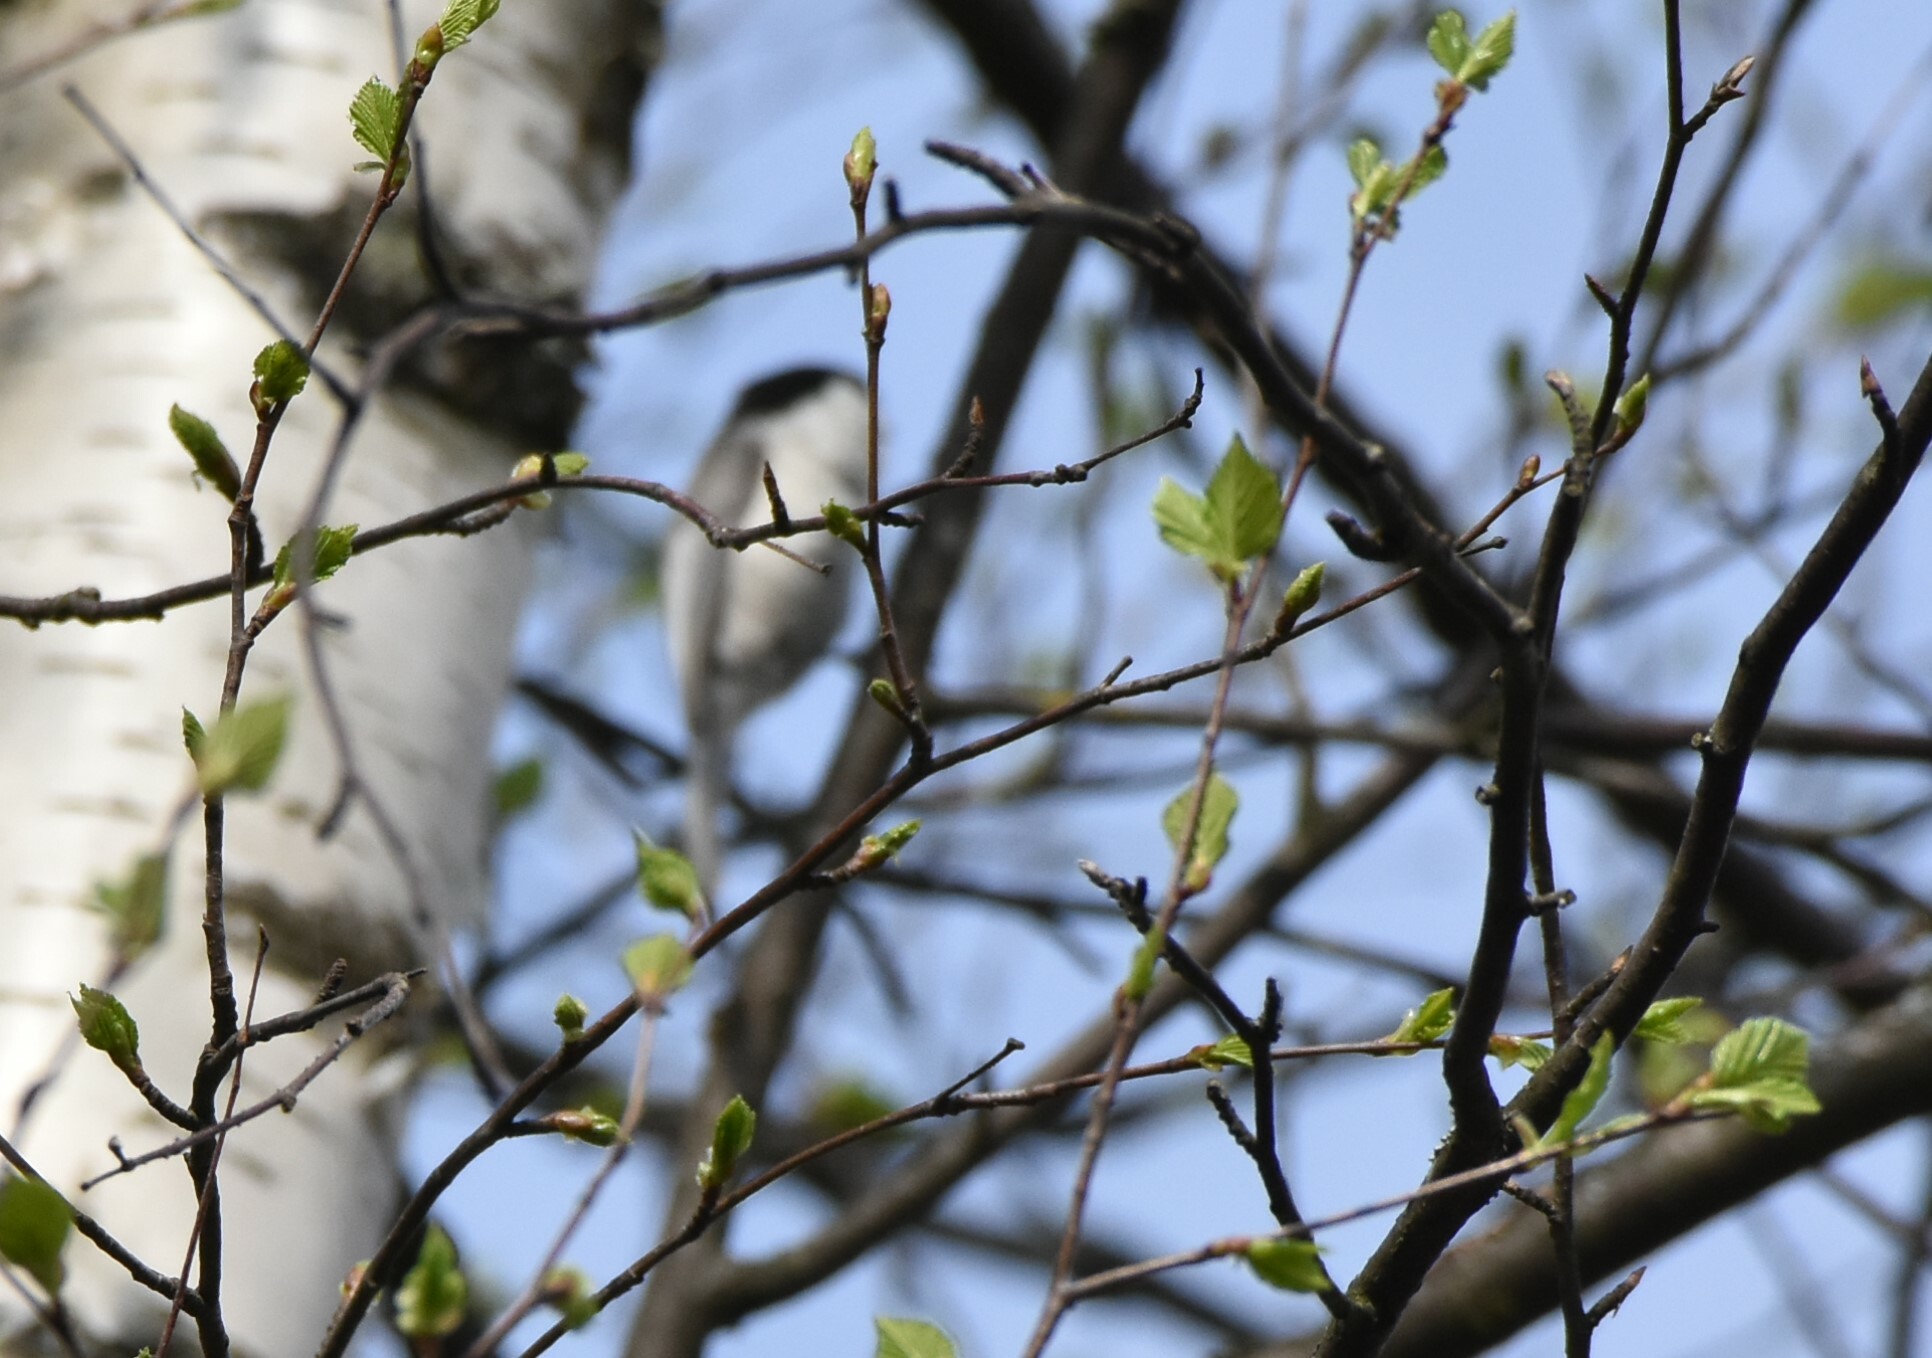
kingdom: Animalia
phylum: Chordata
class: Aves
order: Passeriformes
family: Paridae
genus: Poecile
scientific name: Poecile montanus
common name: Willow tit
